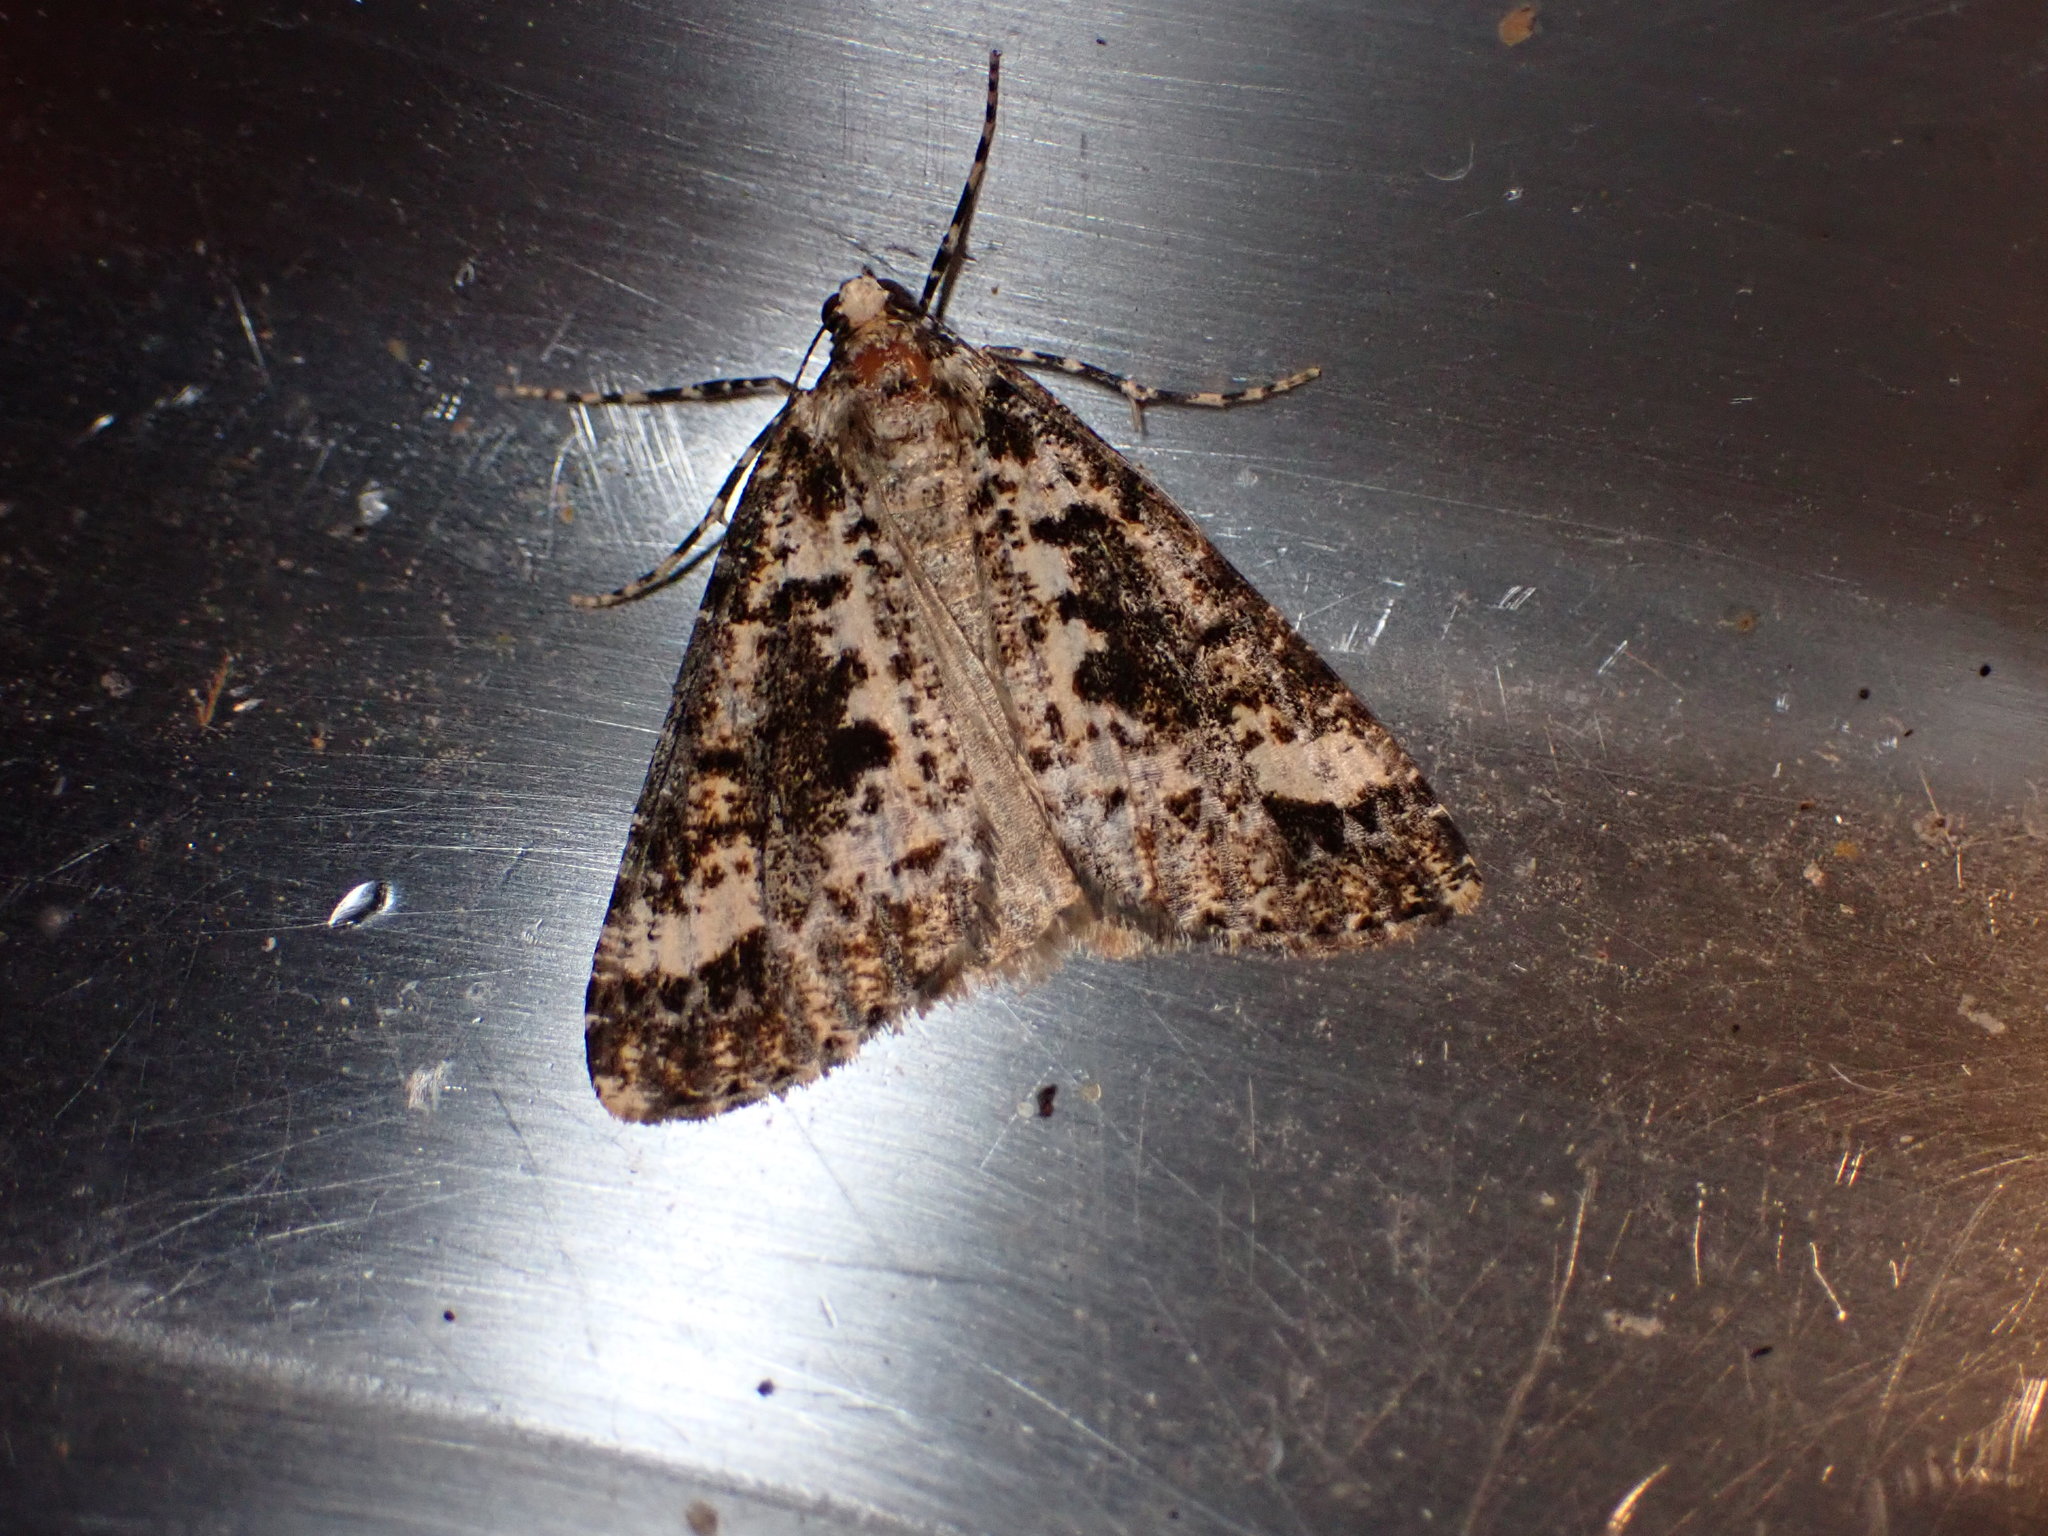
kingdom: Animalia
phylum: Arthropoda
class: Insecta
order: Lepidoptera
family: Geometridae
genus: Pseudocoremia
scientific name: Pseudocoremia leucelaea
